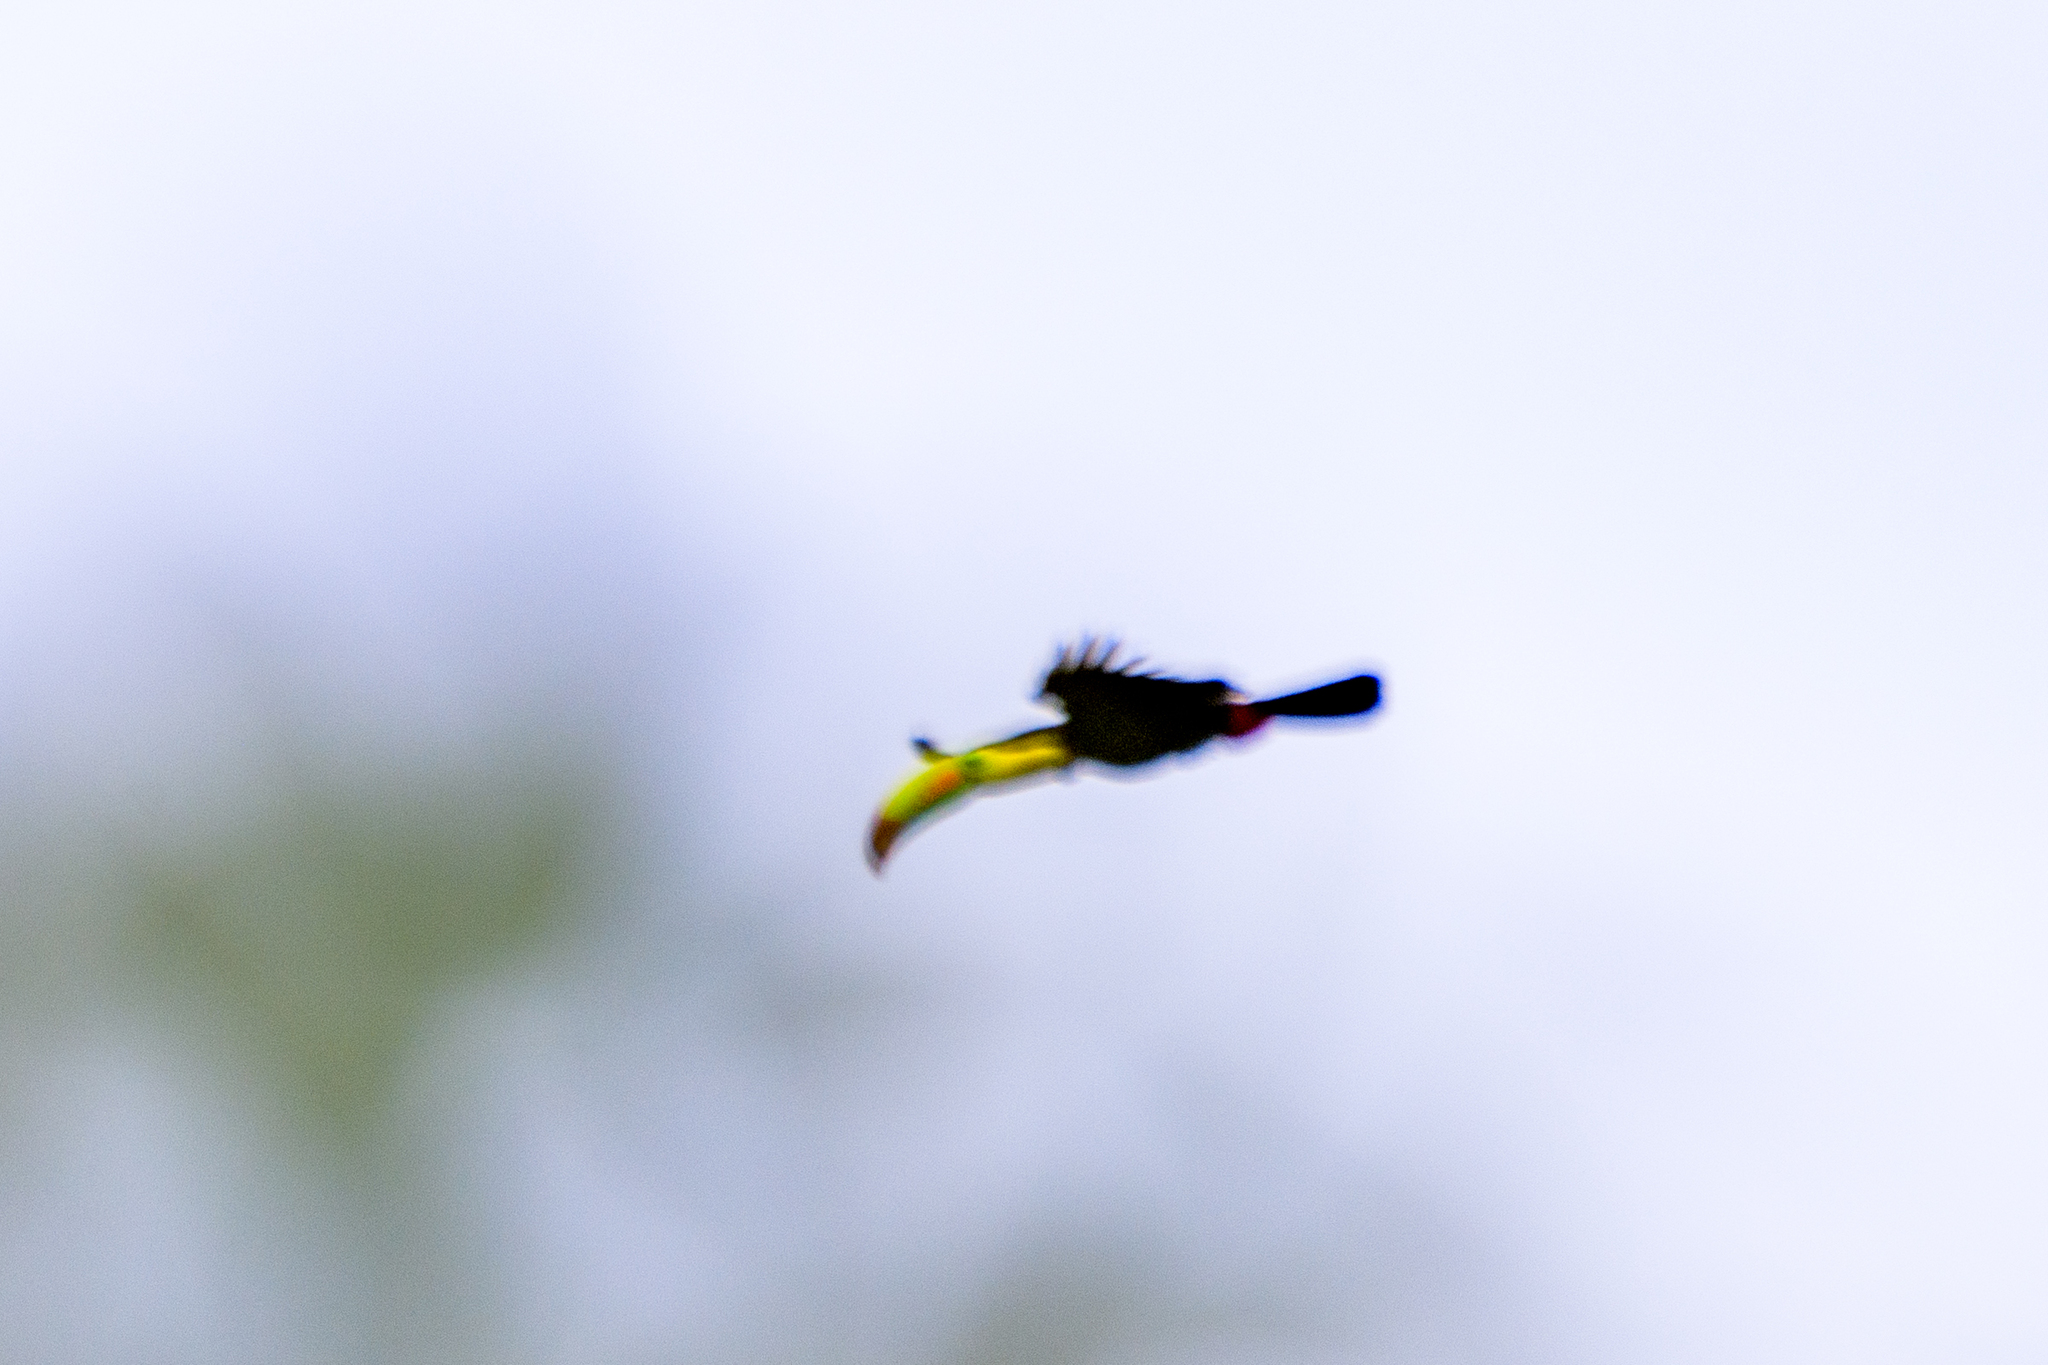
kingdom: Animalia
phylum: Chordata
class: Aves
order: Piciformes
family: Ramphastidae
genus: Ramphastos
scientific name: Ramphastos sulfuratus
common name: Keel-billed toucan
